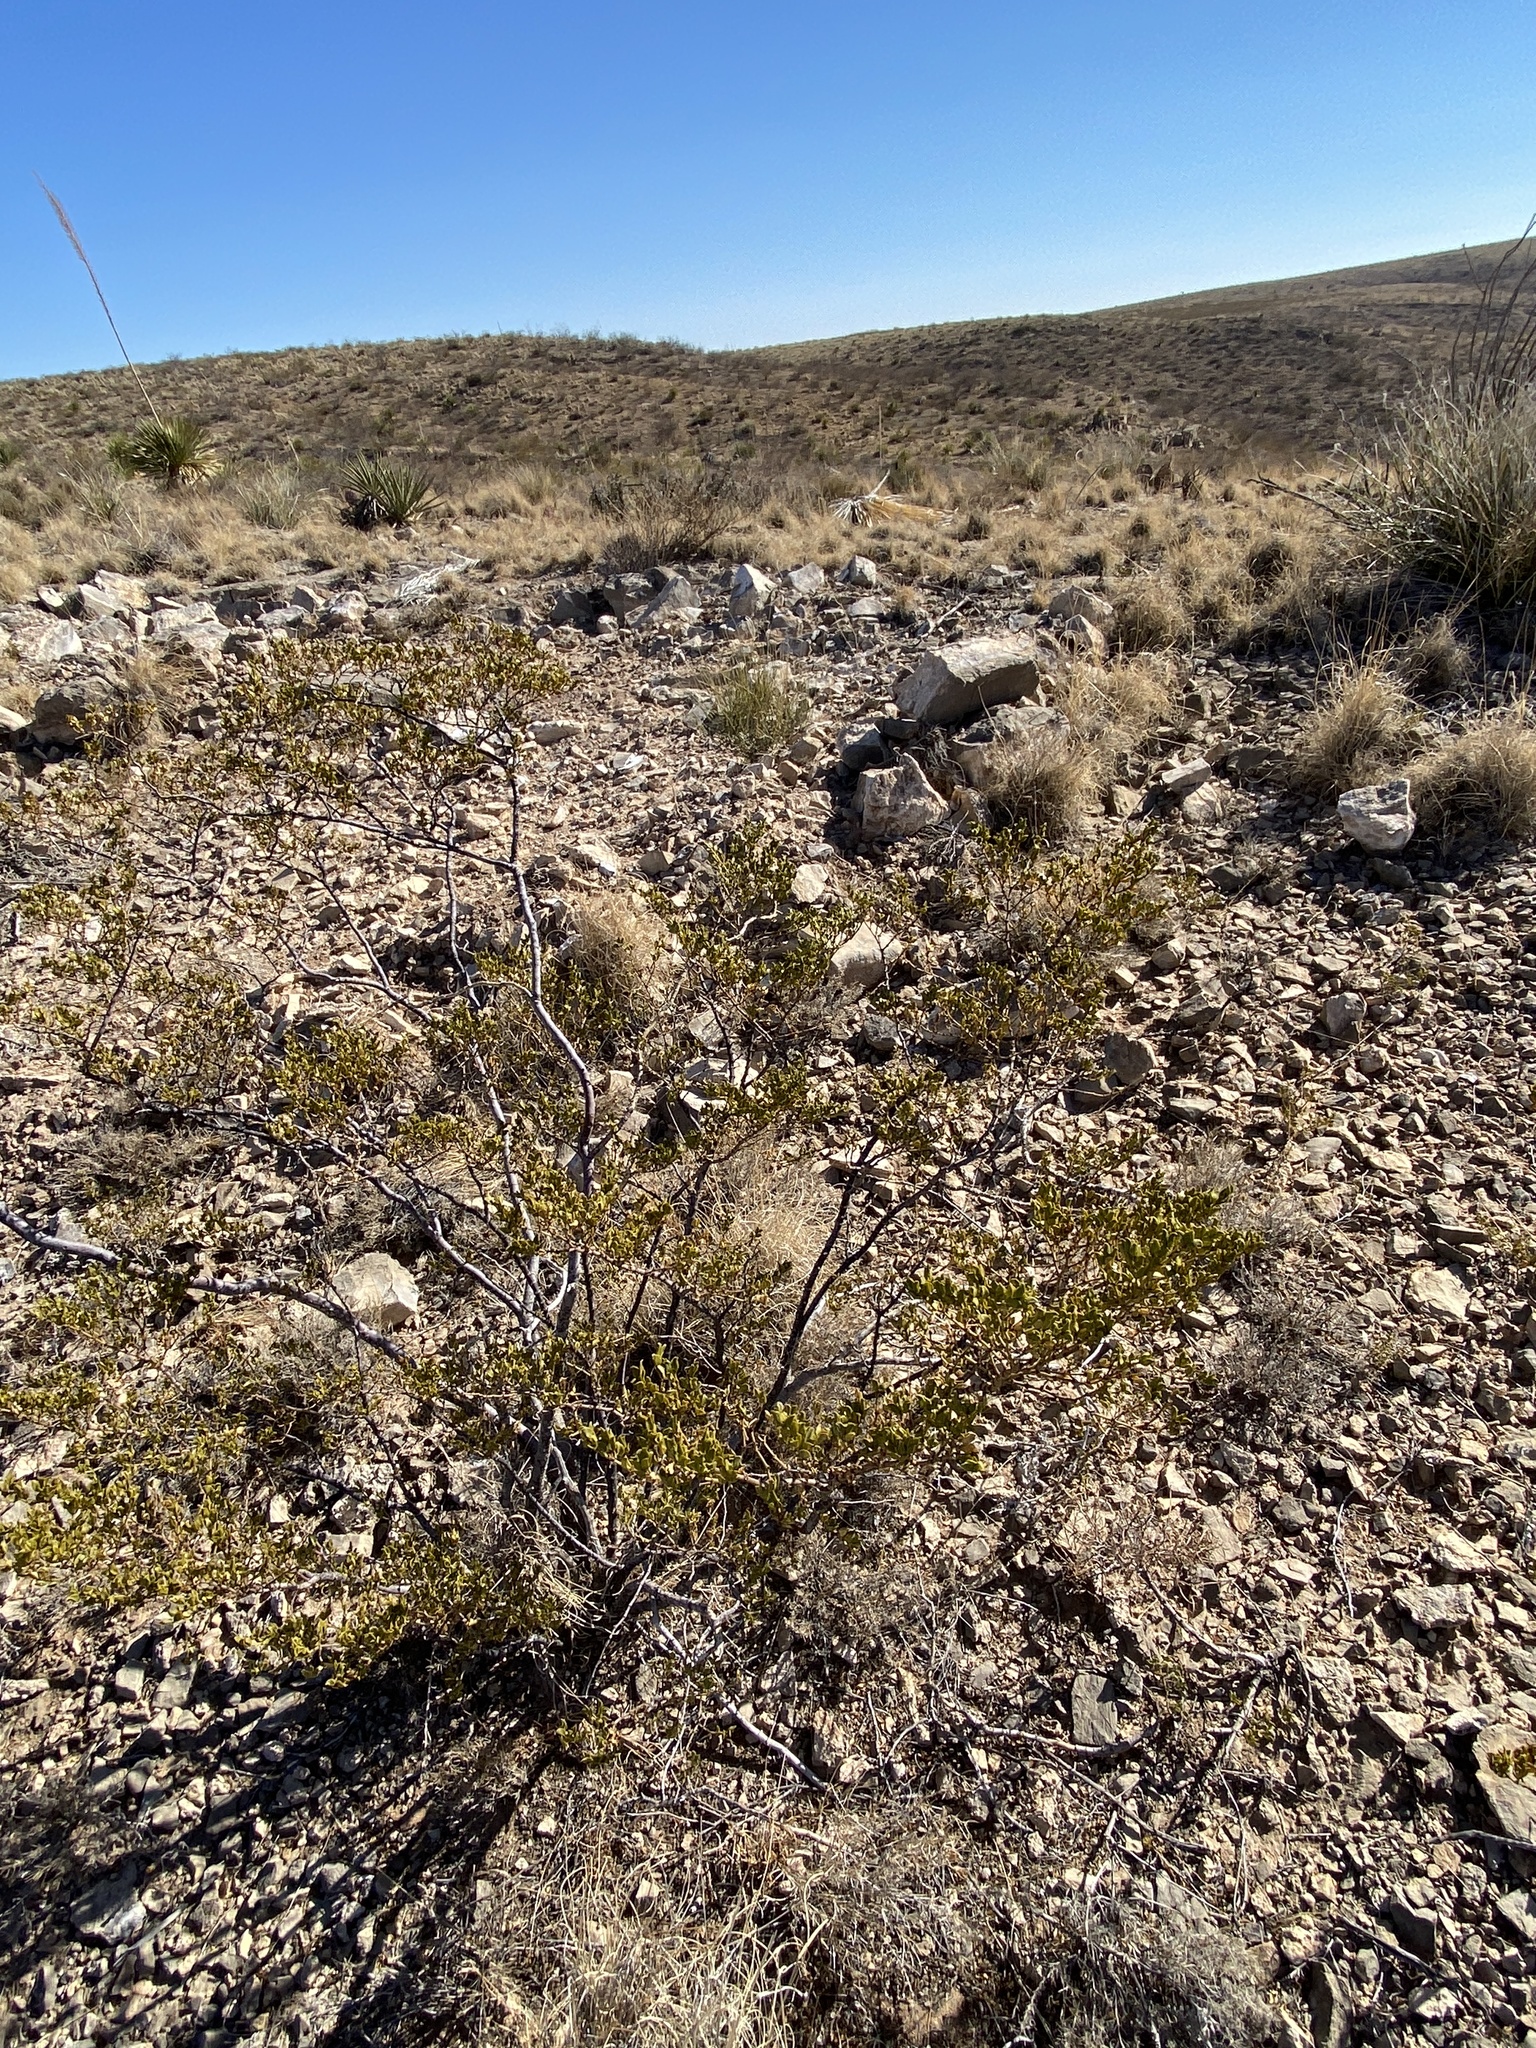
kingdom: Plantae
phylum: Tracheophyta
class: Magnoliopsida
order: Zygophyllales
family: Zygophyllaceae
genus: Larrea
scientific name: Larrea tridentata
